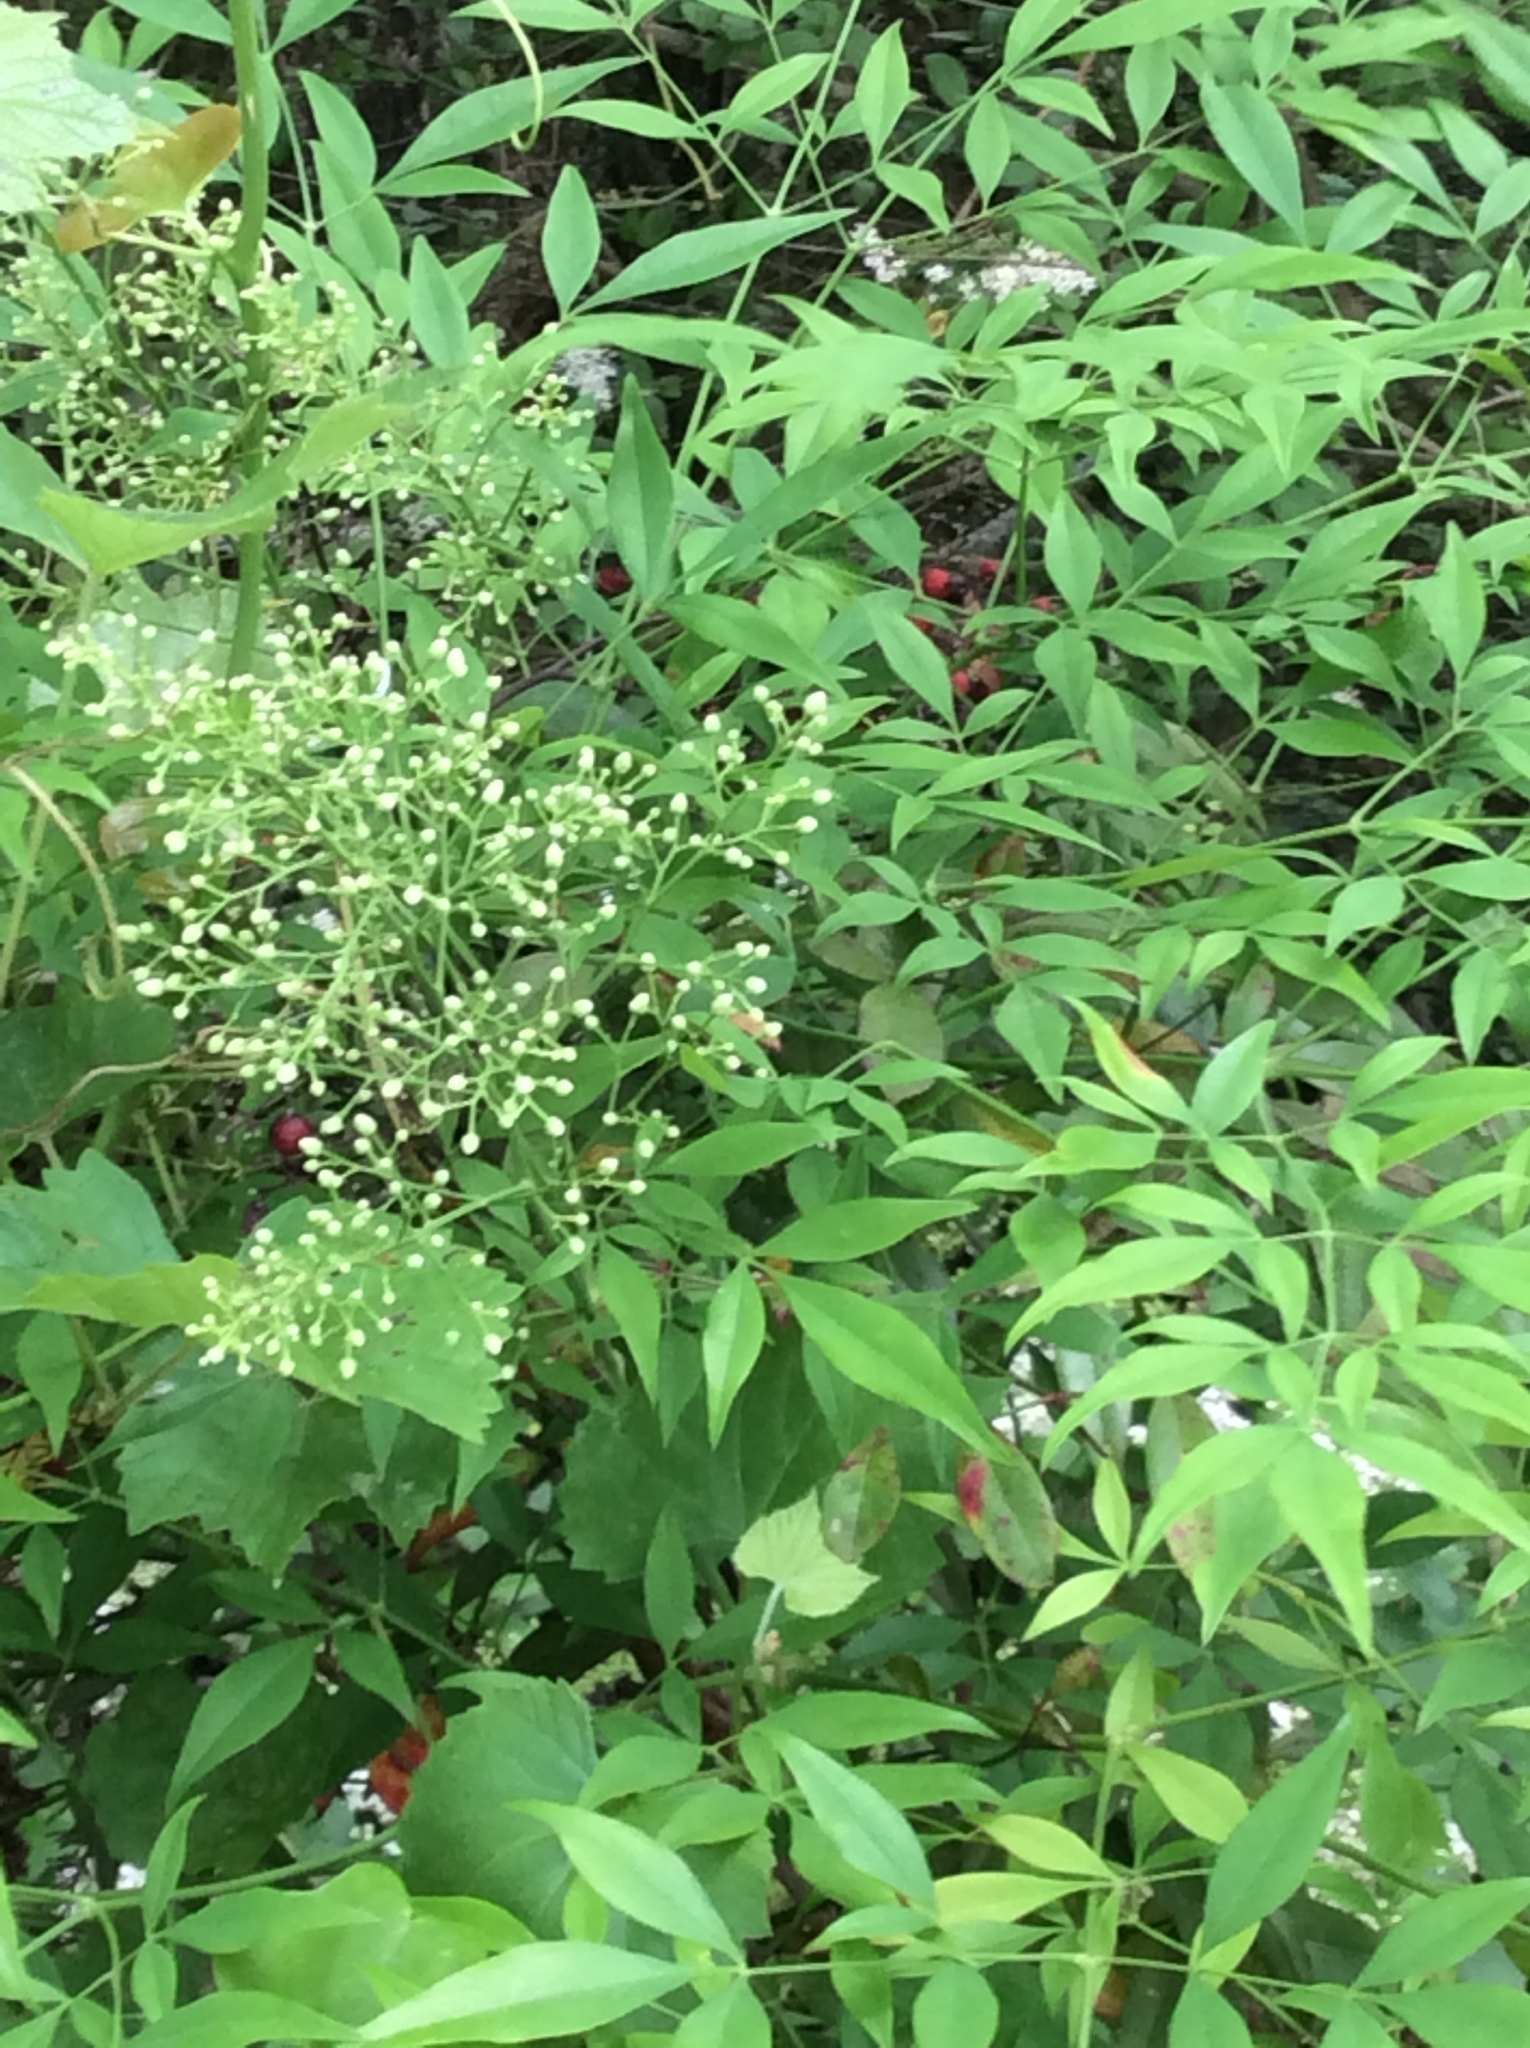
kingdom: Plantae
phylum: Tracheophyta
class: Magnoliopsida
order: Ranunculales
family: Berberidaceae
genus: Nandina
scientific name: Nandina domestica
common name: Sacred bamboo
